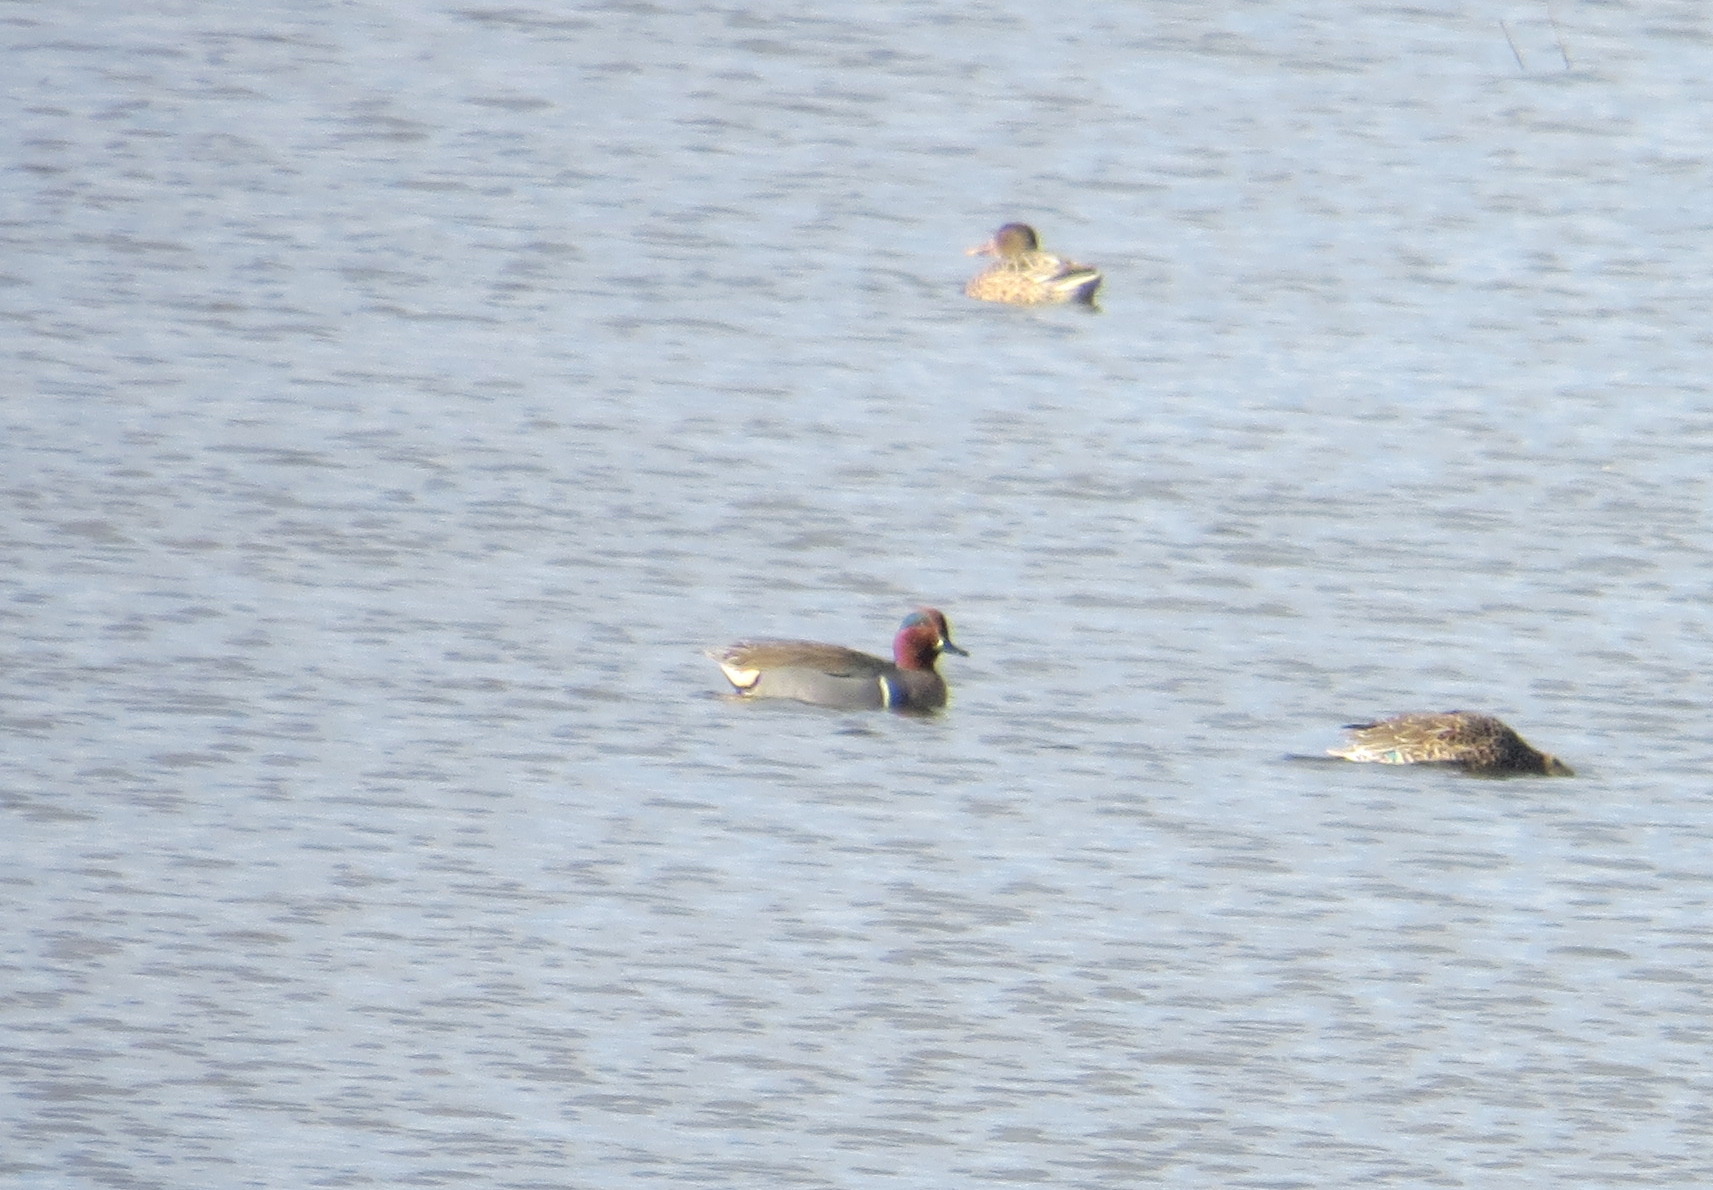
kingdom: Animalia
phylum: Chordata
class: Aves
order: Anseriformes
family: Anatidae
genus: Anas
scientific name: Anas crecca
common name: Eurasian teal
